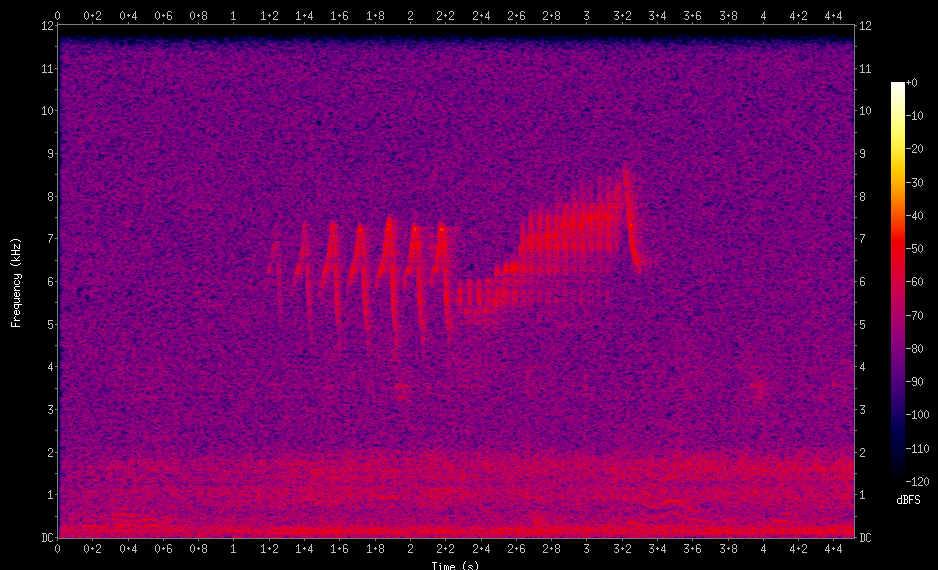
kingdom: Animalia
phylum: Chordata
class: Aves
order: Passeriformes
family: Parulidae
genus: Setophaga
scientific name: Setophaga pitiayumi
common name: Tropical parula
